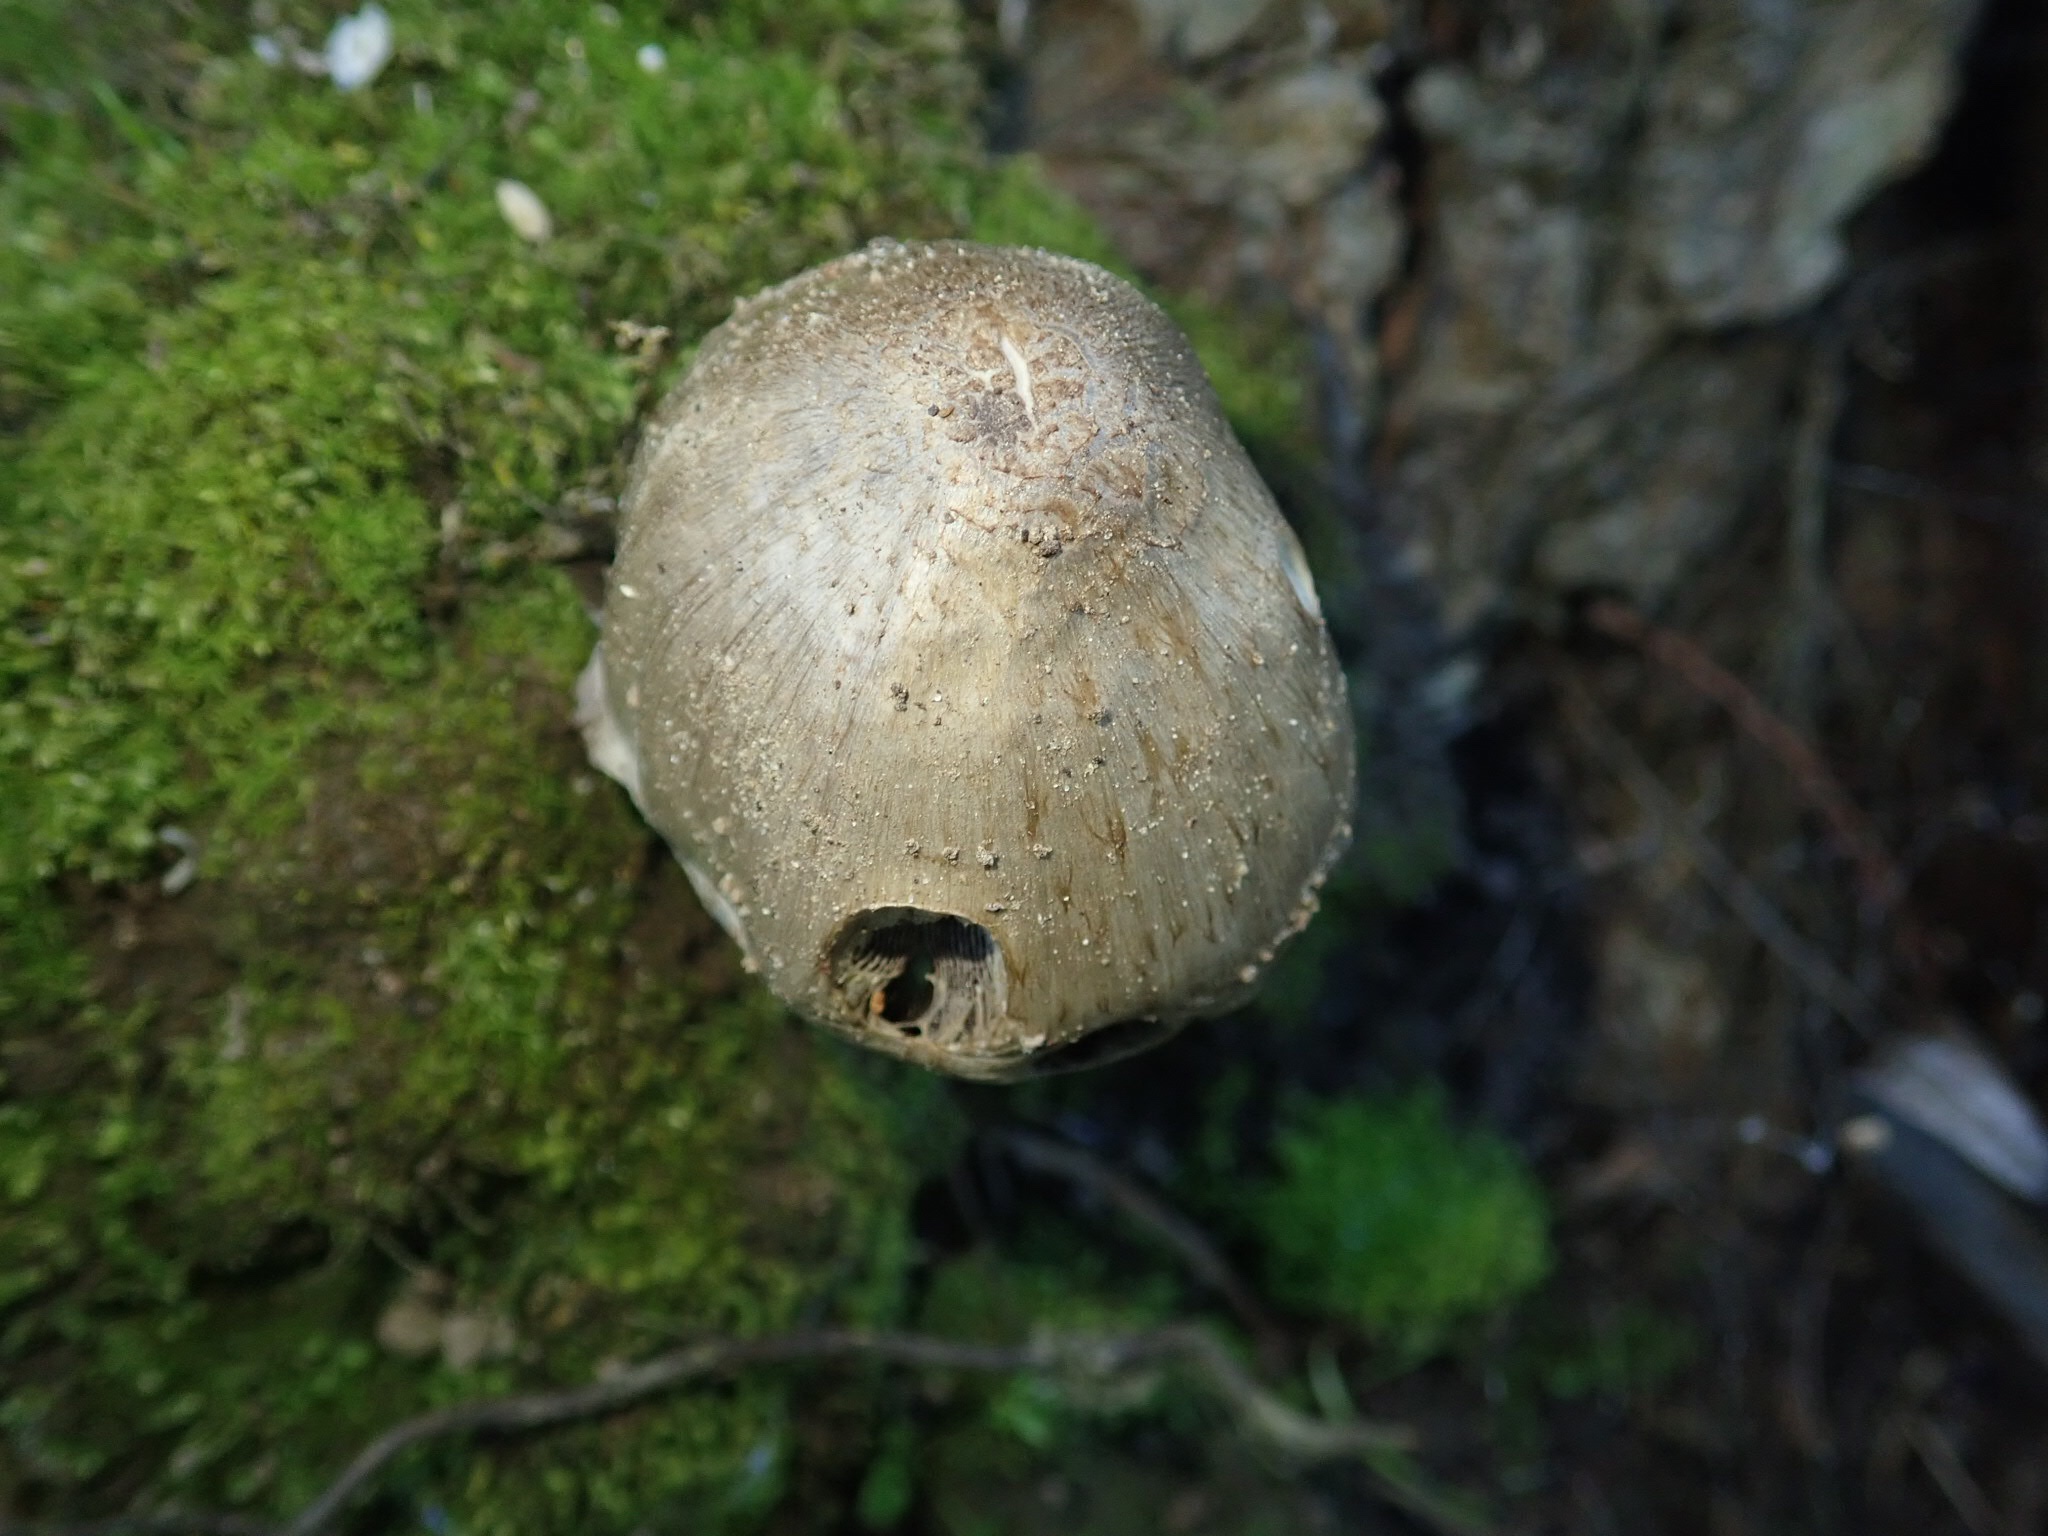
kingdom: Fungi
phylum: Basidiomycota
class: Agaricomycetes
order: Agaricales
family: Psathyrellaceae
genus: Coprinopsis
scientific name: Coprinopsis atramentaria
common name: Common ink-cap
